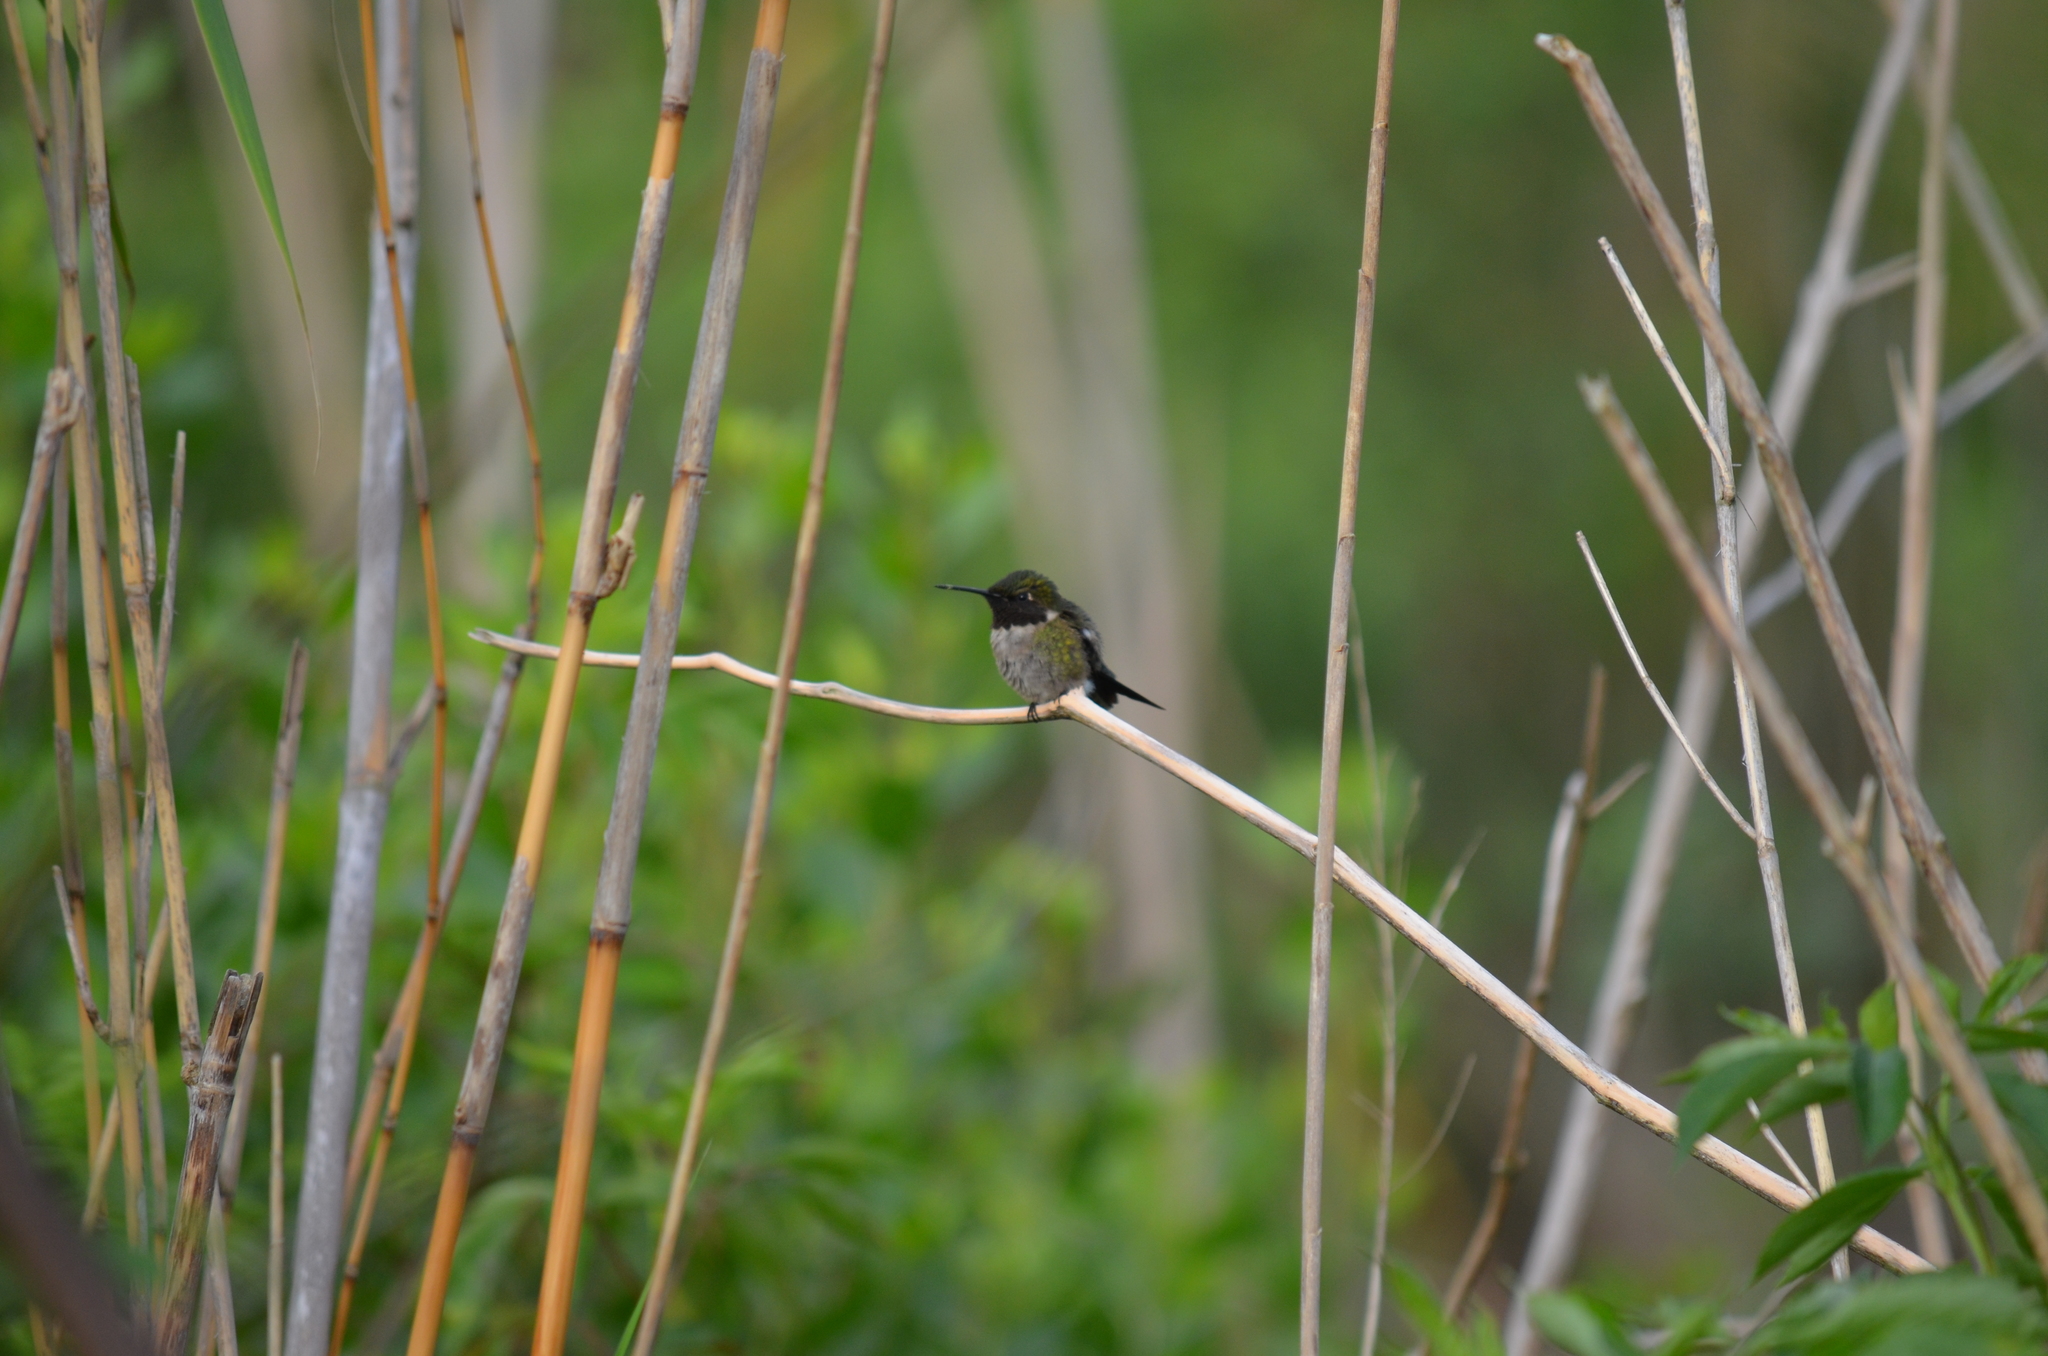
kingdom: Animalia
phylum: Chordata
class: Aves
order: Apodiformes
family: Trochilidae
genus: Archilochus
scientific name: Archilochus colubris
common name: Ruby-throated hummingbird
